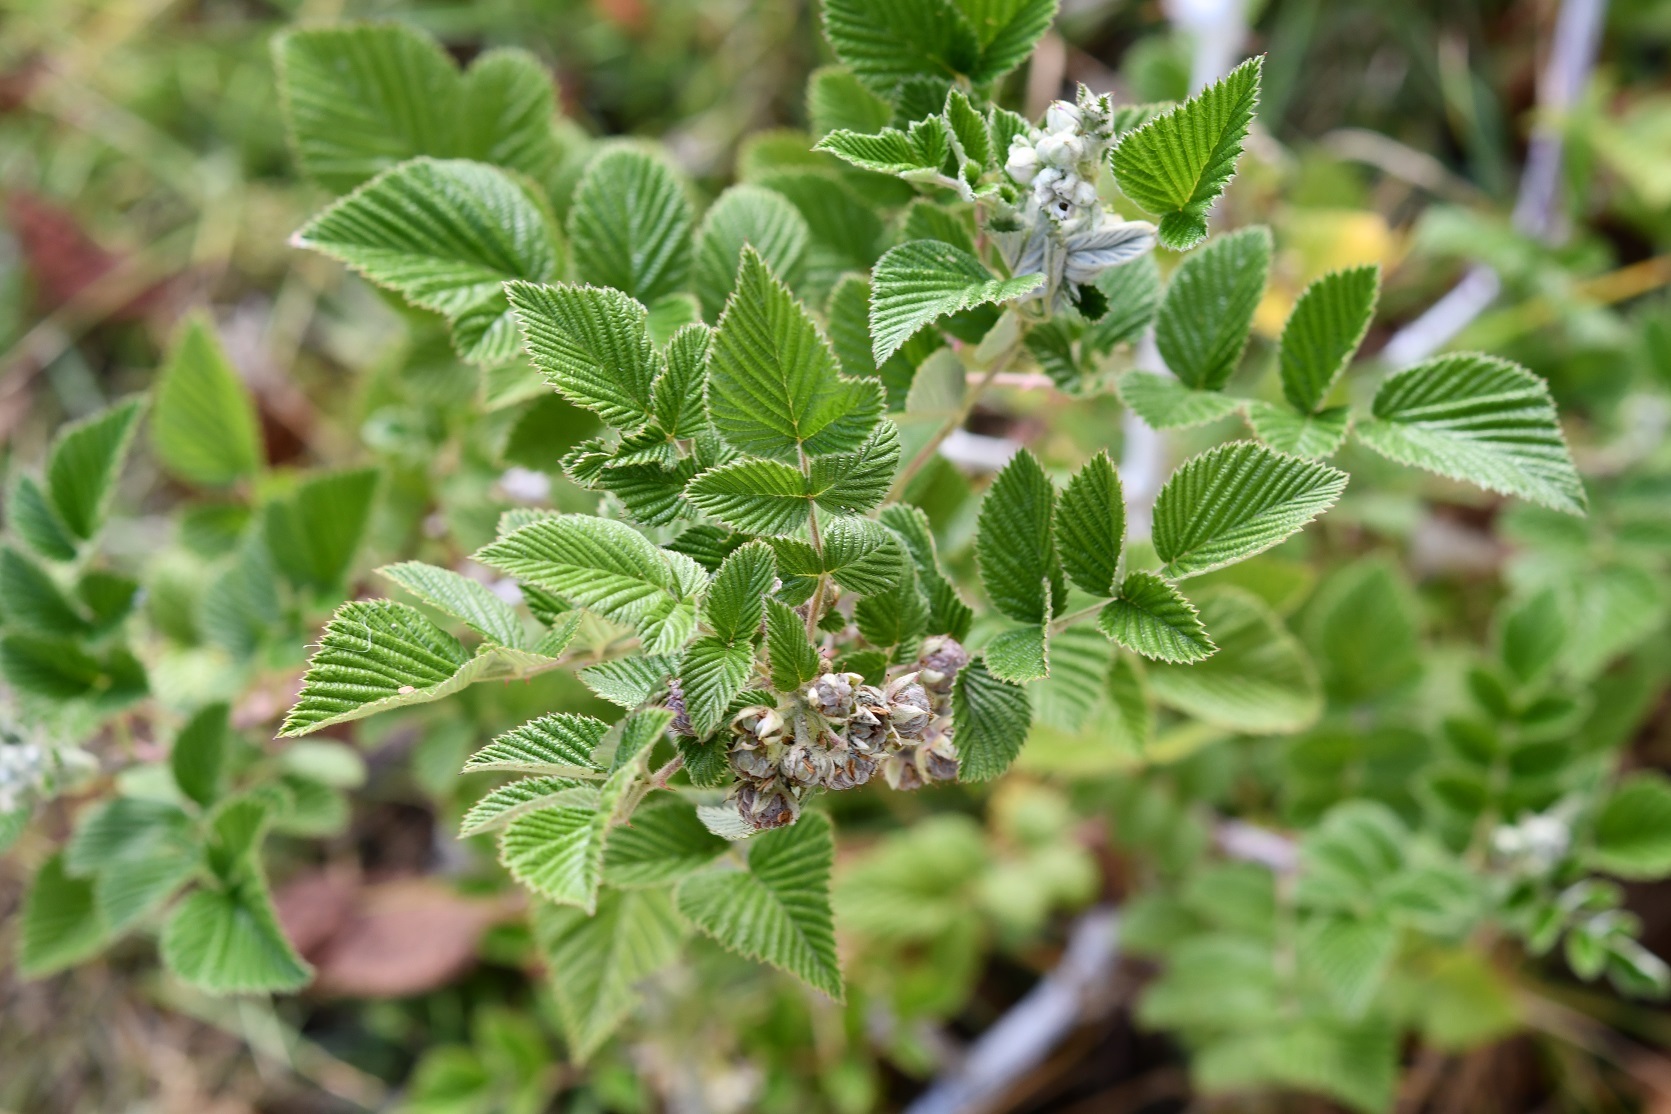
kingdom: Plantae
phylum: Tracheophyta
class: Magnoliopsida
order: Rosales
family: Rosaceae
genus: Rubus
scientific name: Rubus niveus
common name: Snowpeaks raspberry
